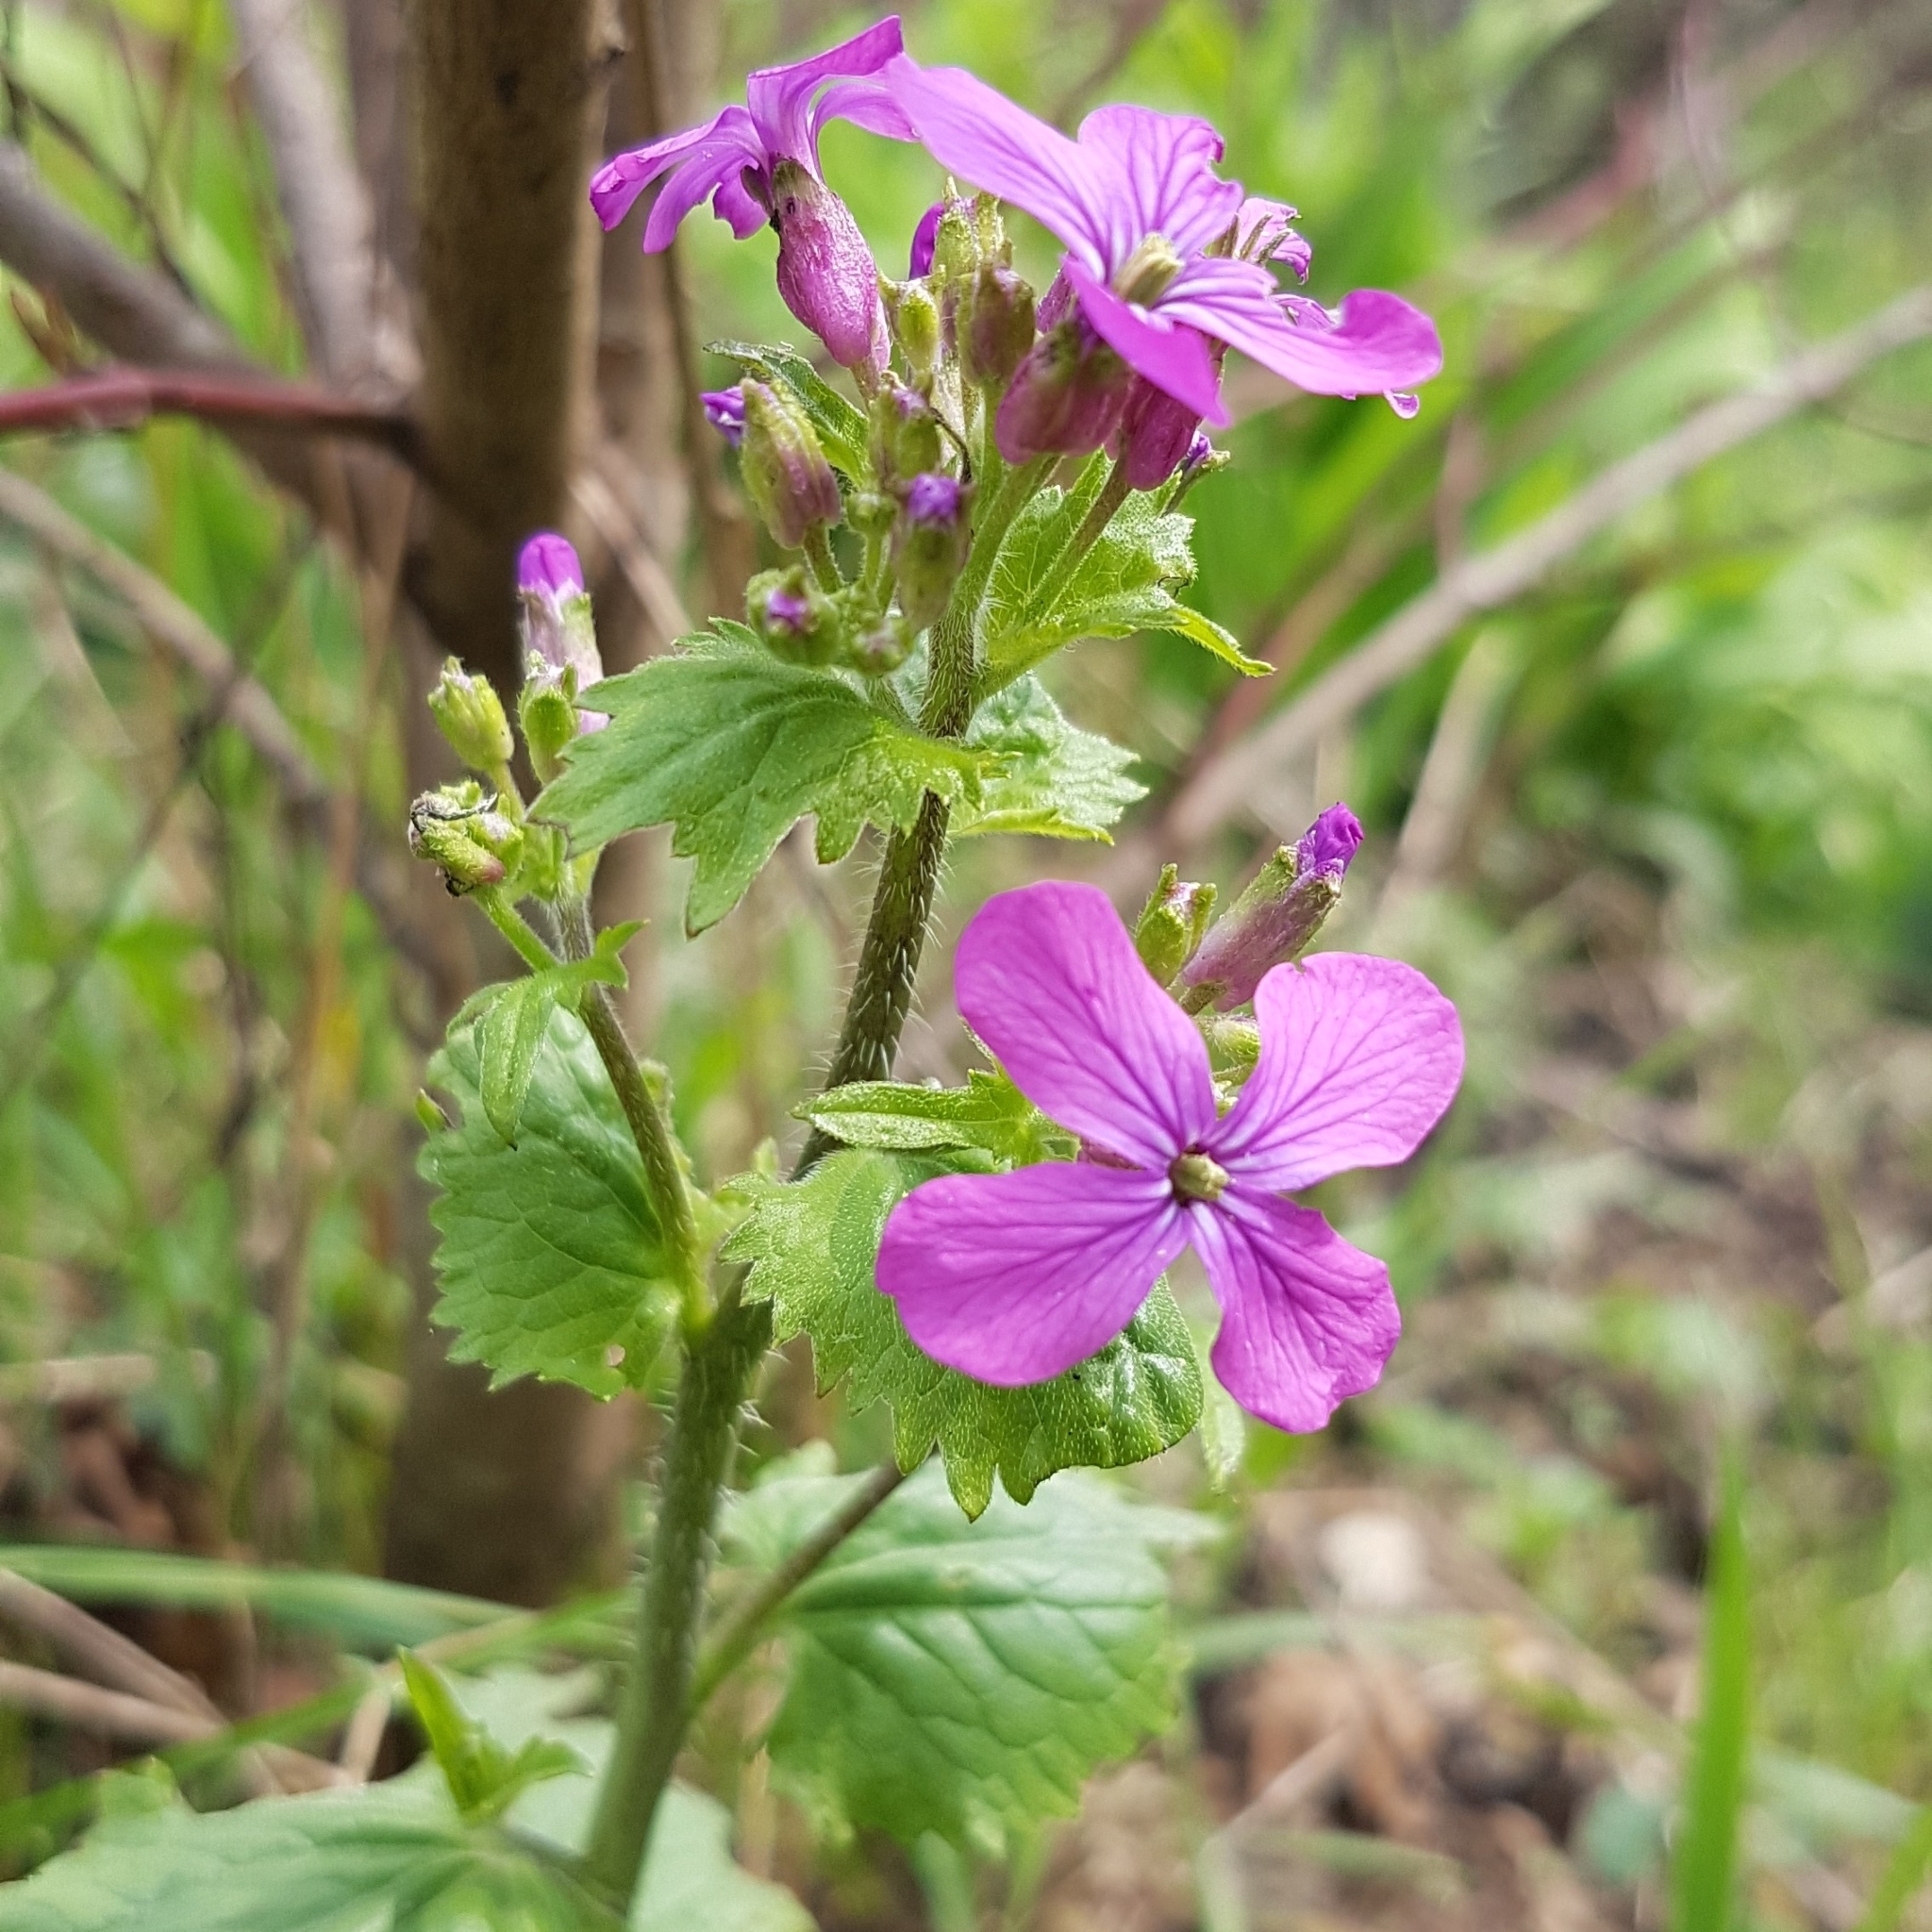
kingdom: Plantae
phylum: Tracheophyta
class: Magnoliopsida
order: Brassicales
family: Brassicaceae
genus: Lunaria
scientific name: Lunaria annua
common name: Honesty
